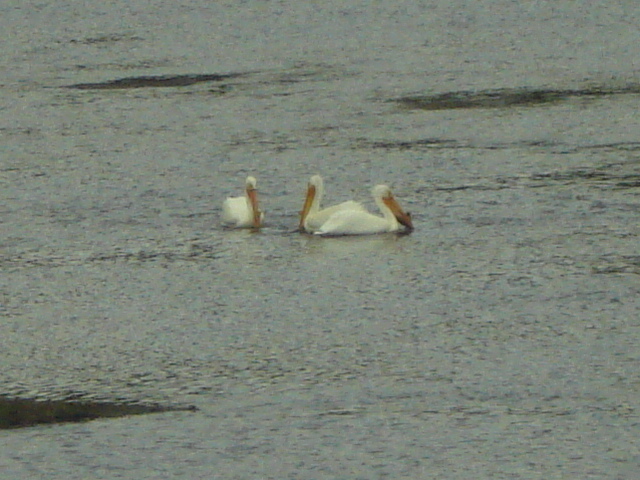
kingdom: Animalia
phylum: Chordata
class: Aves
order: Pelecaniformes
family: Pelecanidae
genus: Pelecanus
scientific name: Pelecanus erythrorhynchos
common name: American white pelican
